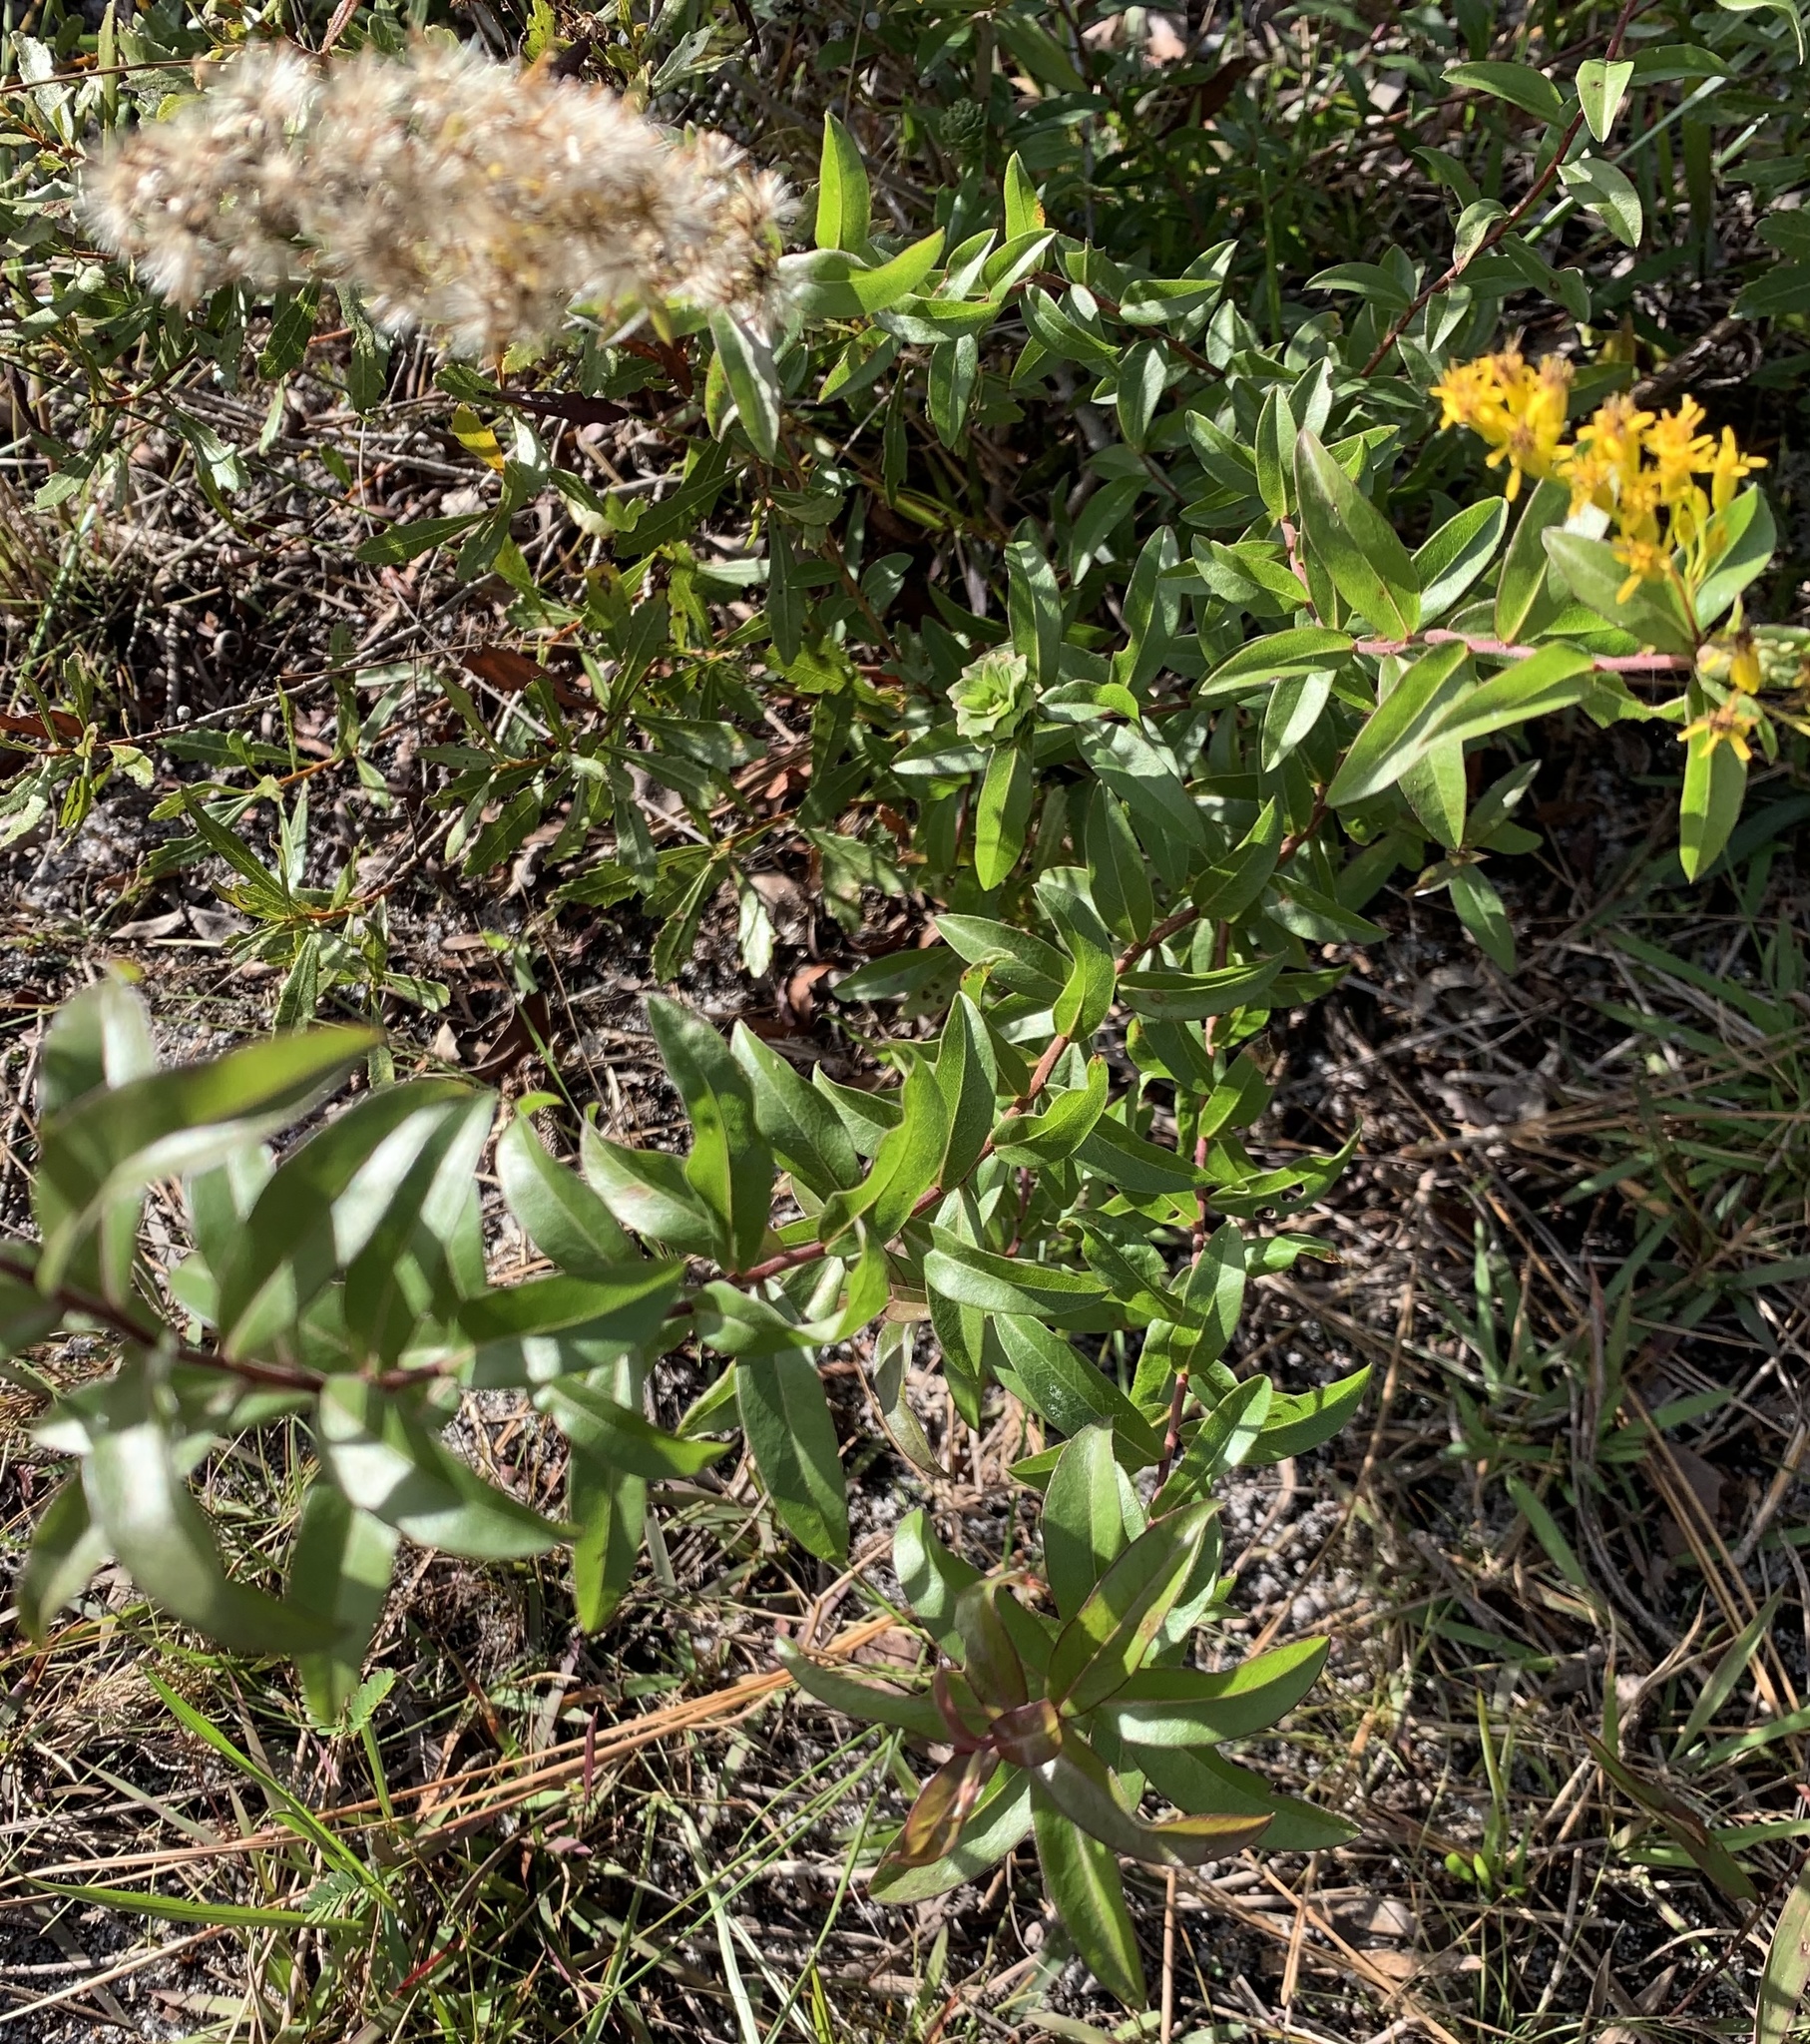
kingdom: Plantae
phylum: Tracheophyta
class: Magnoliopsida
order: Asterales
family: Asteraceae
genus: Solidago
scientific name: Solidago chapmanii
